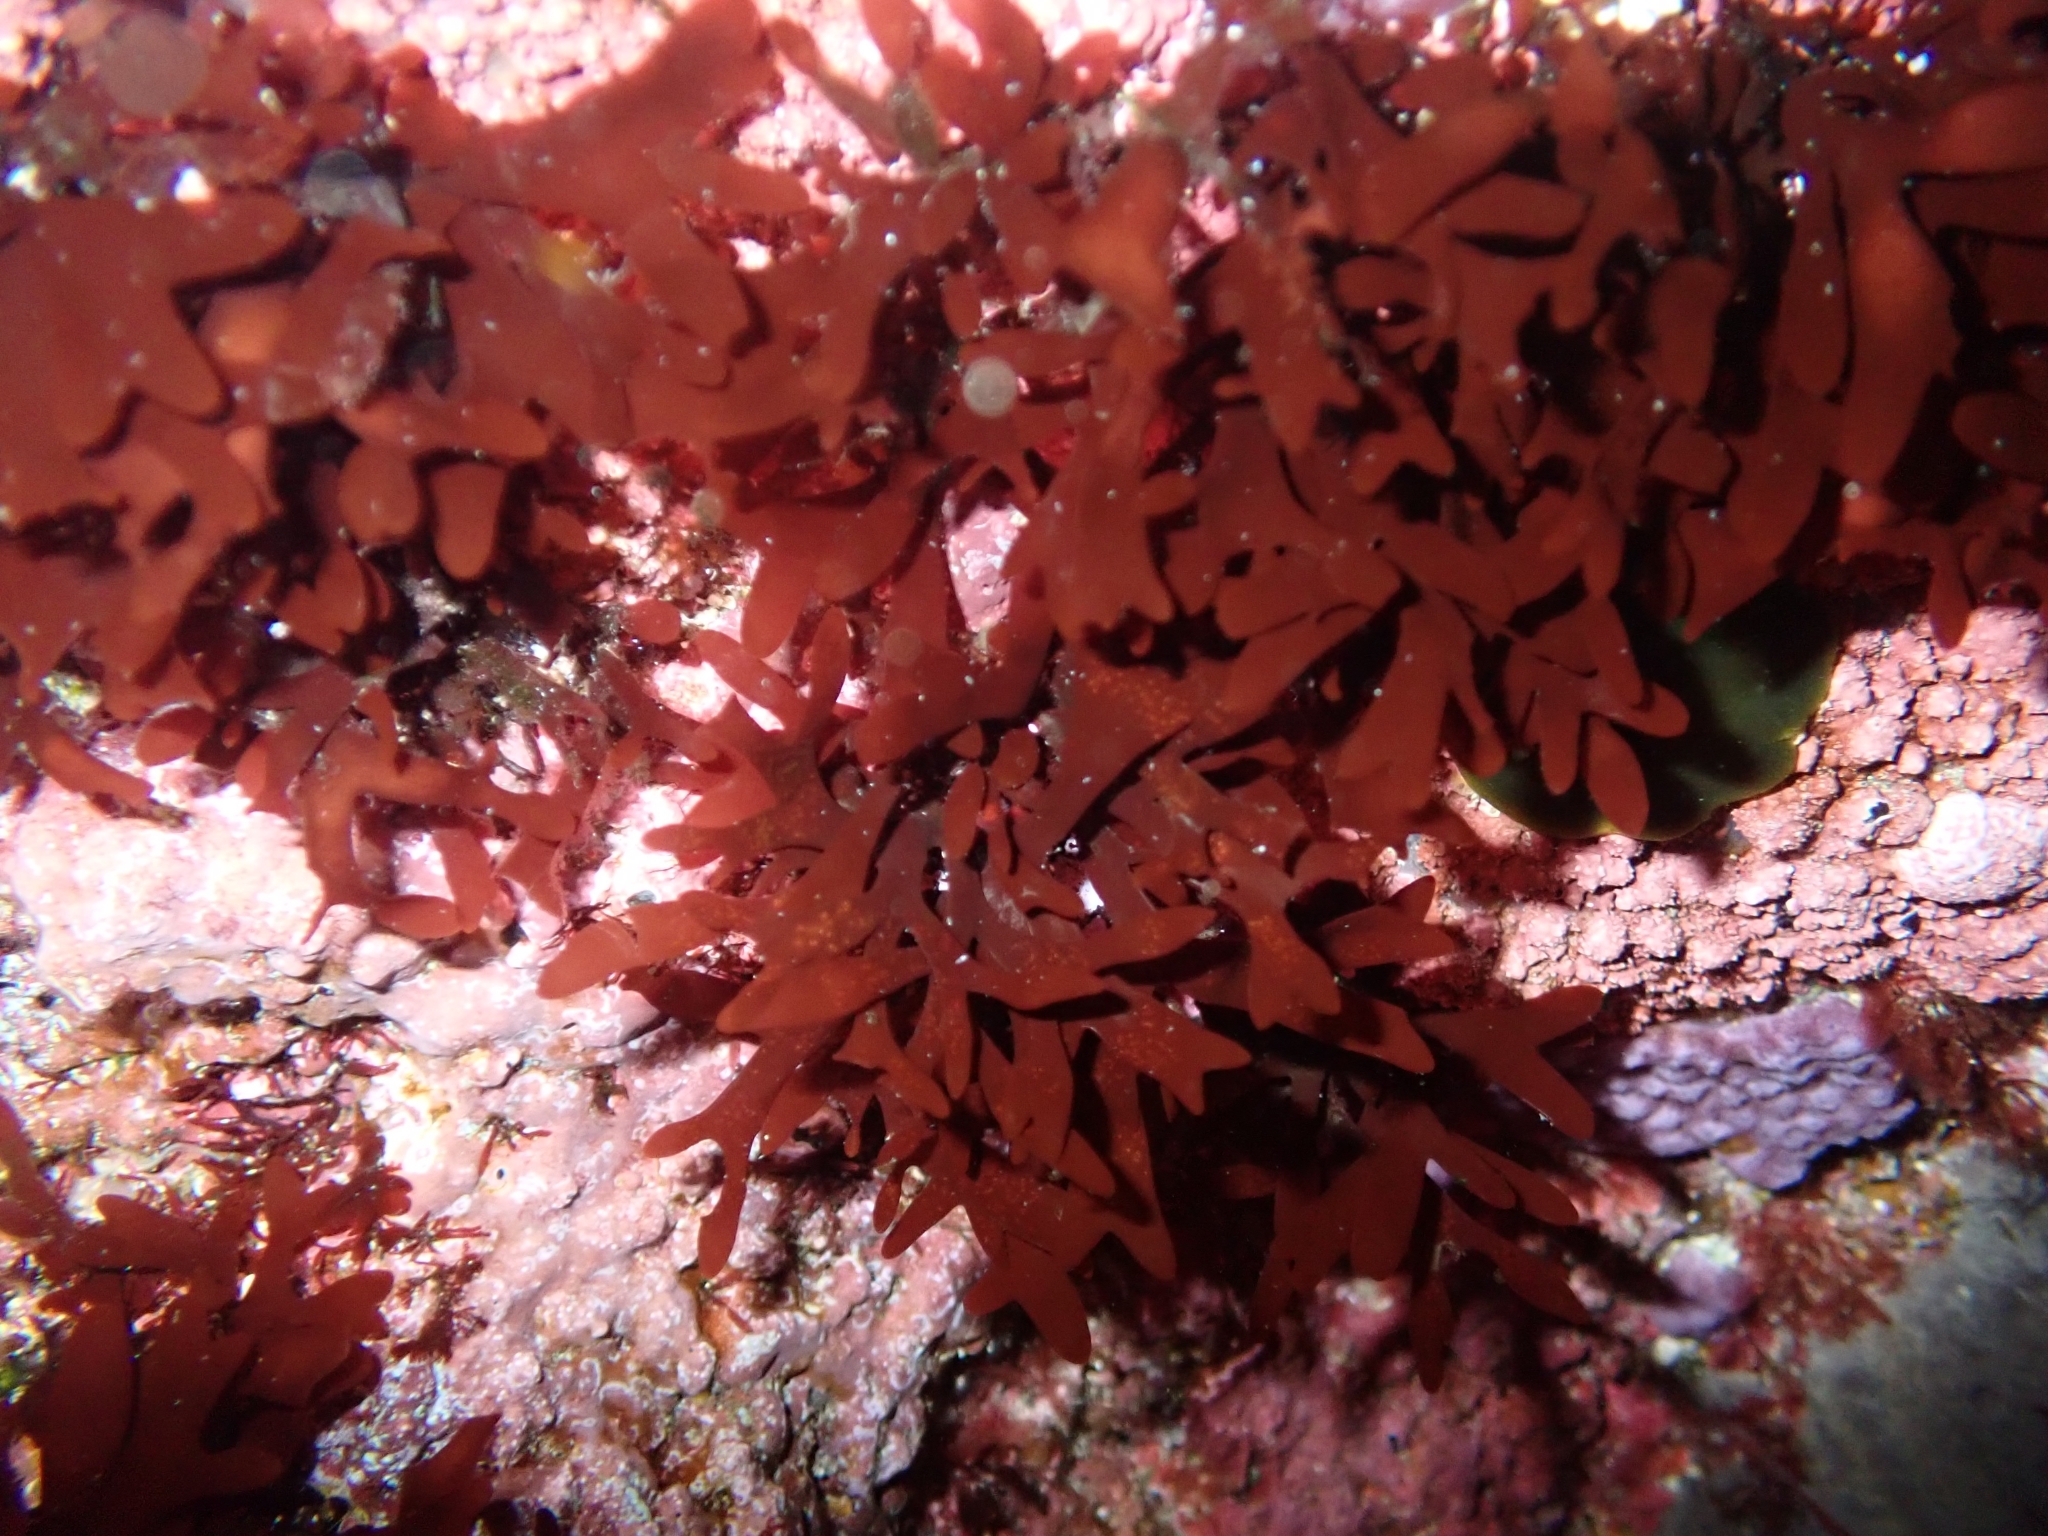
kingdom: Plantae
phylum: Rhodophyta
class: Florideophyceae
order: Ceramiales
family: Callithamniaceae
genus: Gaillona
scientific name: Gaillona Grateloupia imbricata
